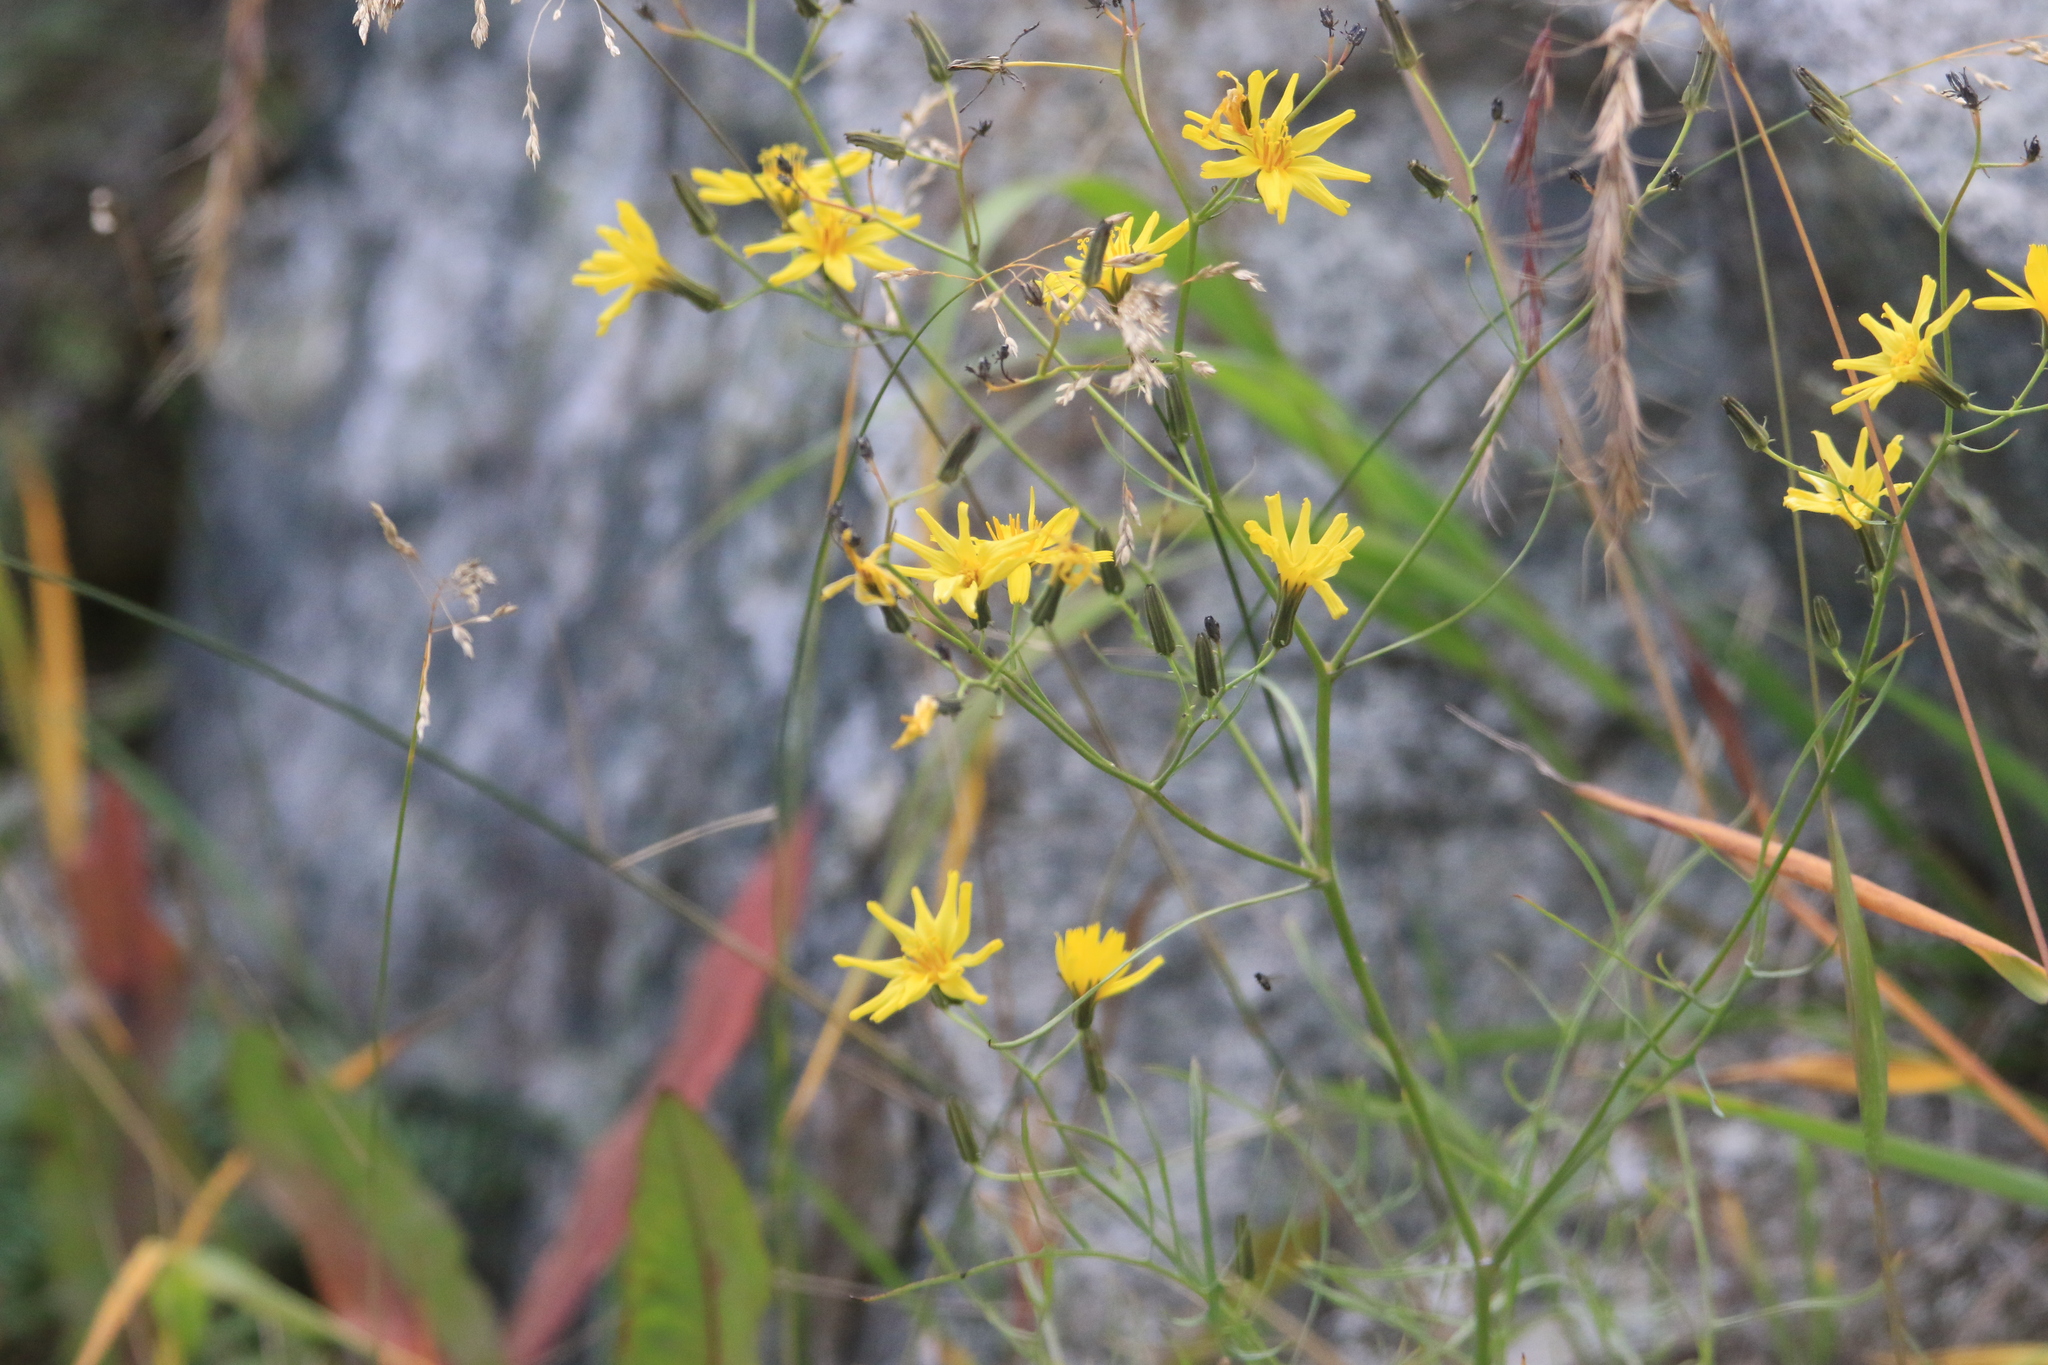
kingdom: Plantae
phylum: Tracheophyta
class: Magnoliopsida
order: Asterales
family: Asteraceae
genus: Crepidiastrum
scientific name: Crepidiastrum tenuifolium
